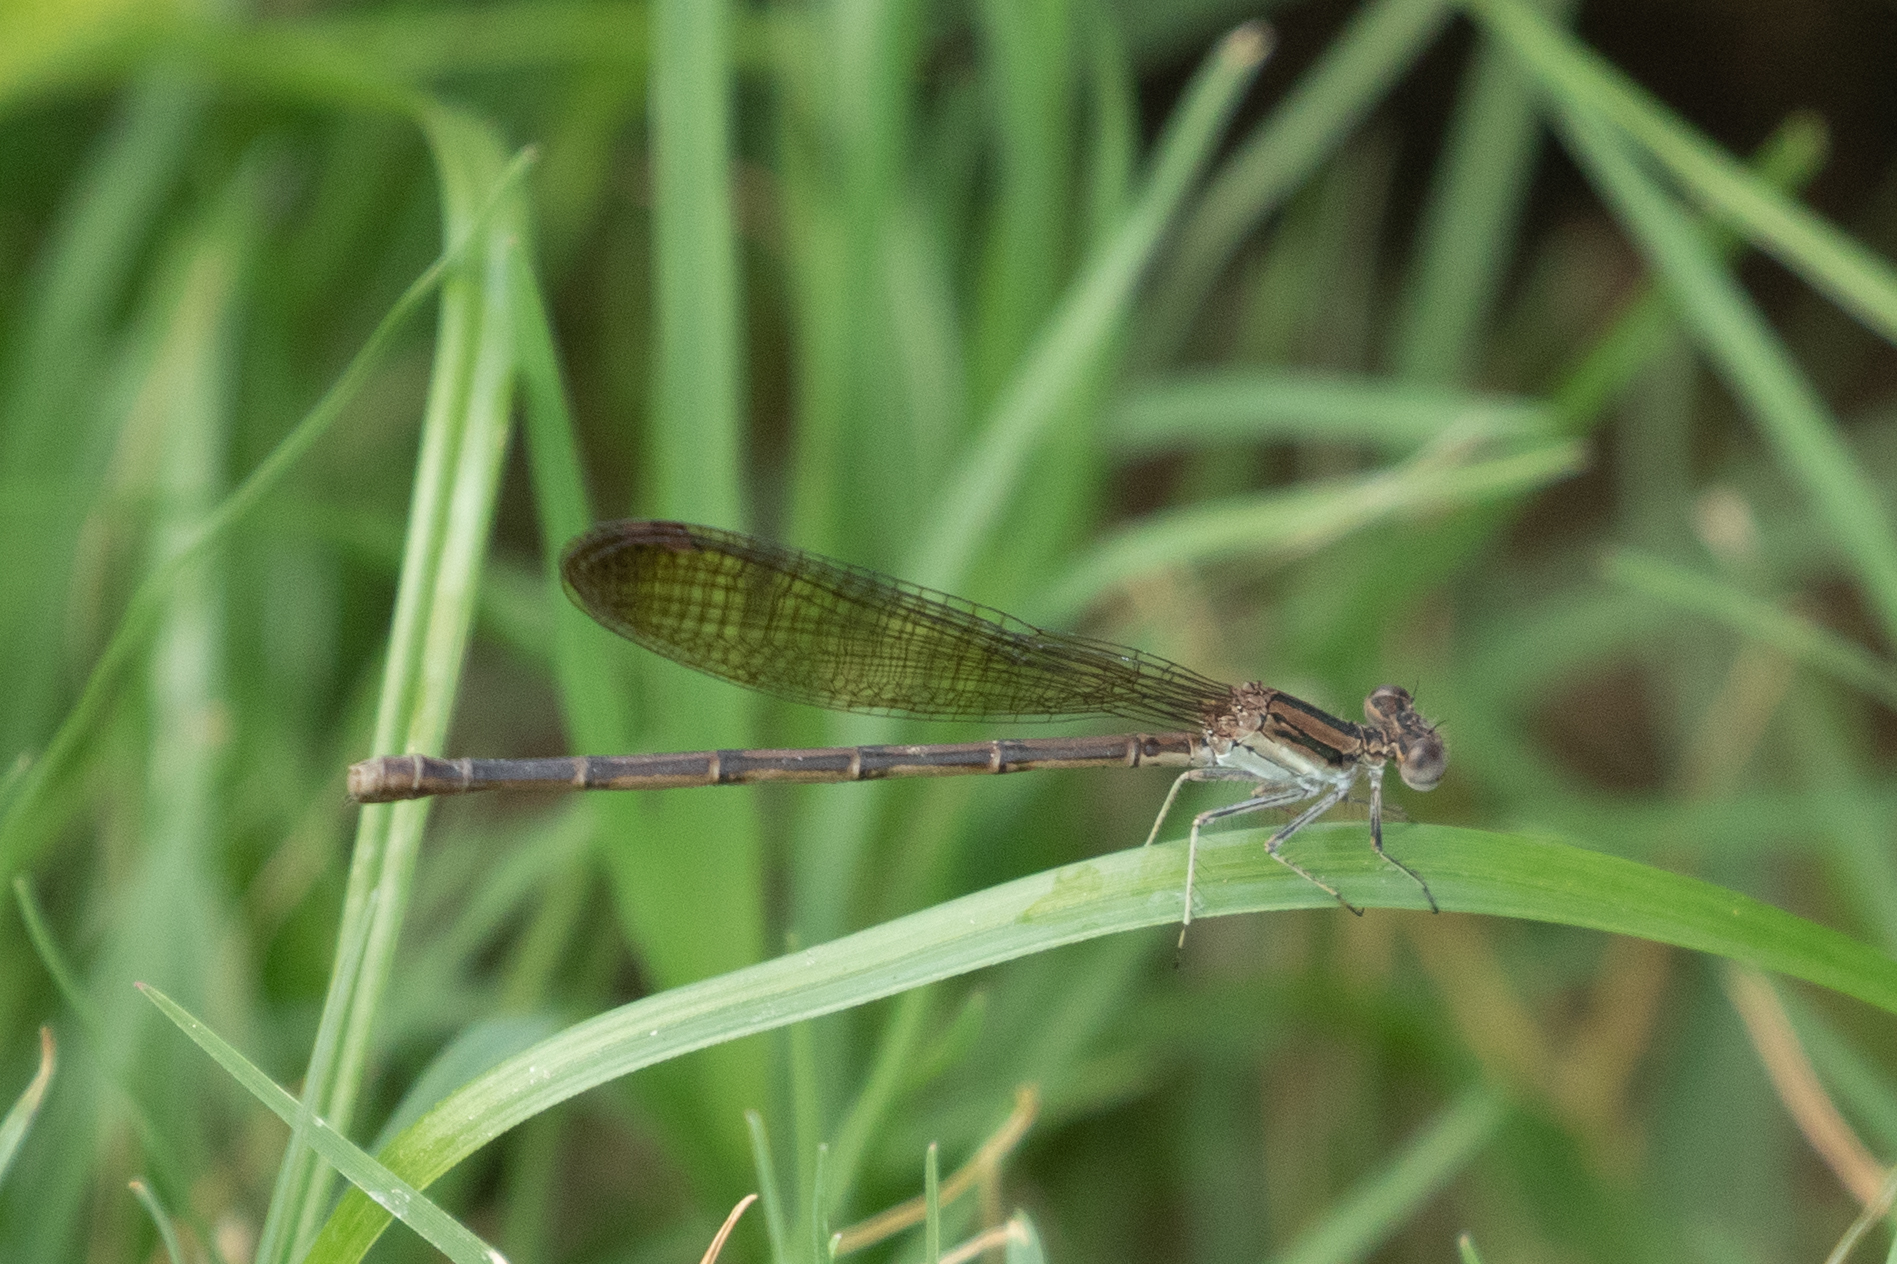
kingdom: Animalia
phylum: Arthropoda
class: Insecta
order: Odonata
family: Coenagrionidae
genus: Argia
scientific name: Argia fumipennis
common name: Variable dancer
